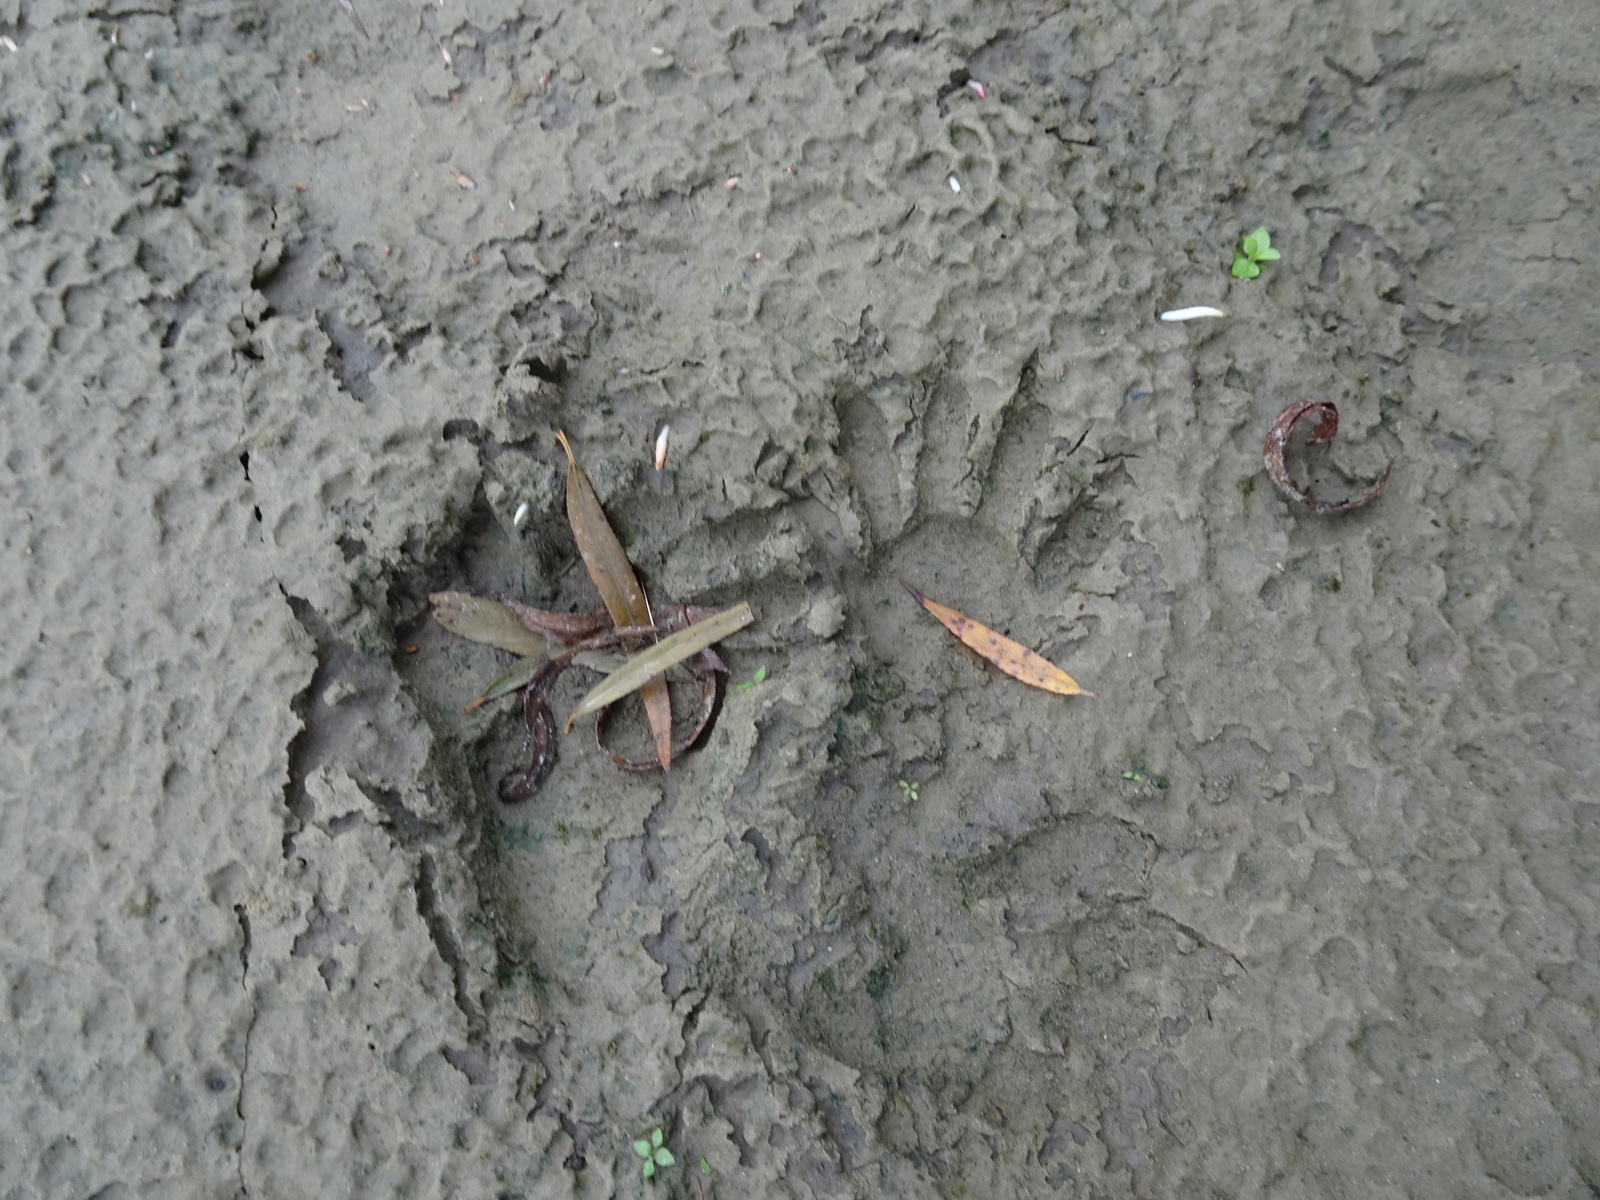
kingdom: Animalia
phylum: Chordata
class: Mammalia
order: Carnivora
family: Procyonidae
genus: Procyon
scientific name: Procyon lotor
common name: Raccoon
